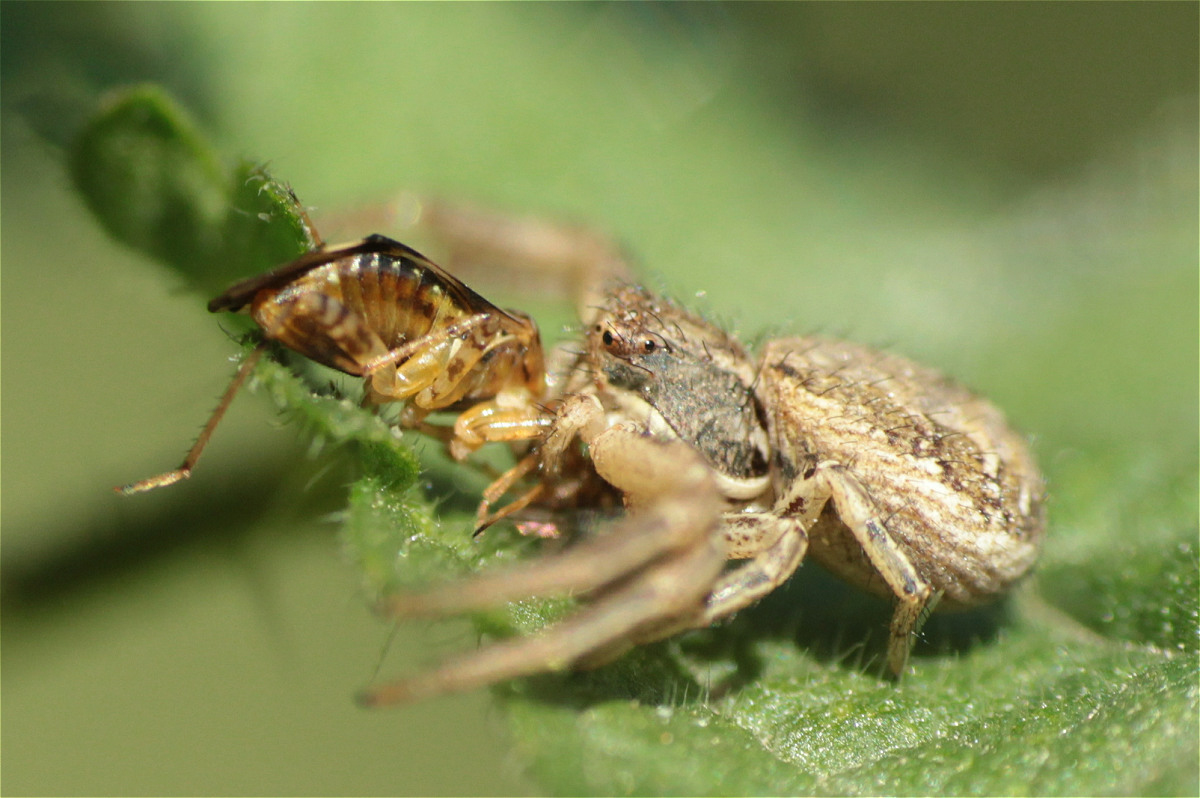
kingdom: Animalia
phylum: Arthropoda
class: Arachnida
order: Araneae
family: Thomisidae
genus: Xysticus
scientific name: Xysticus
